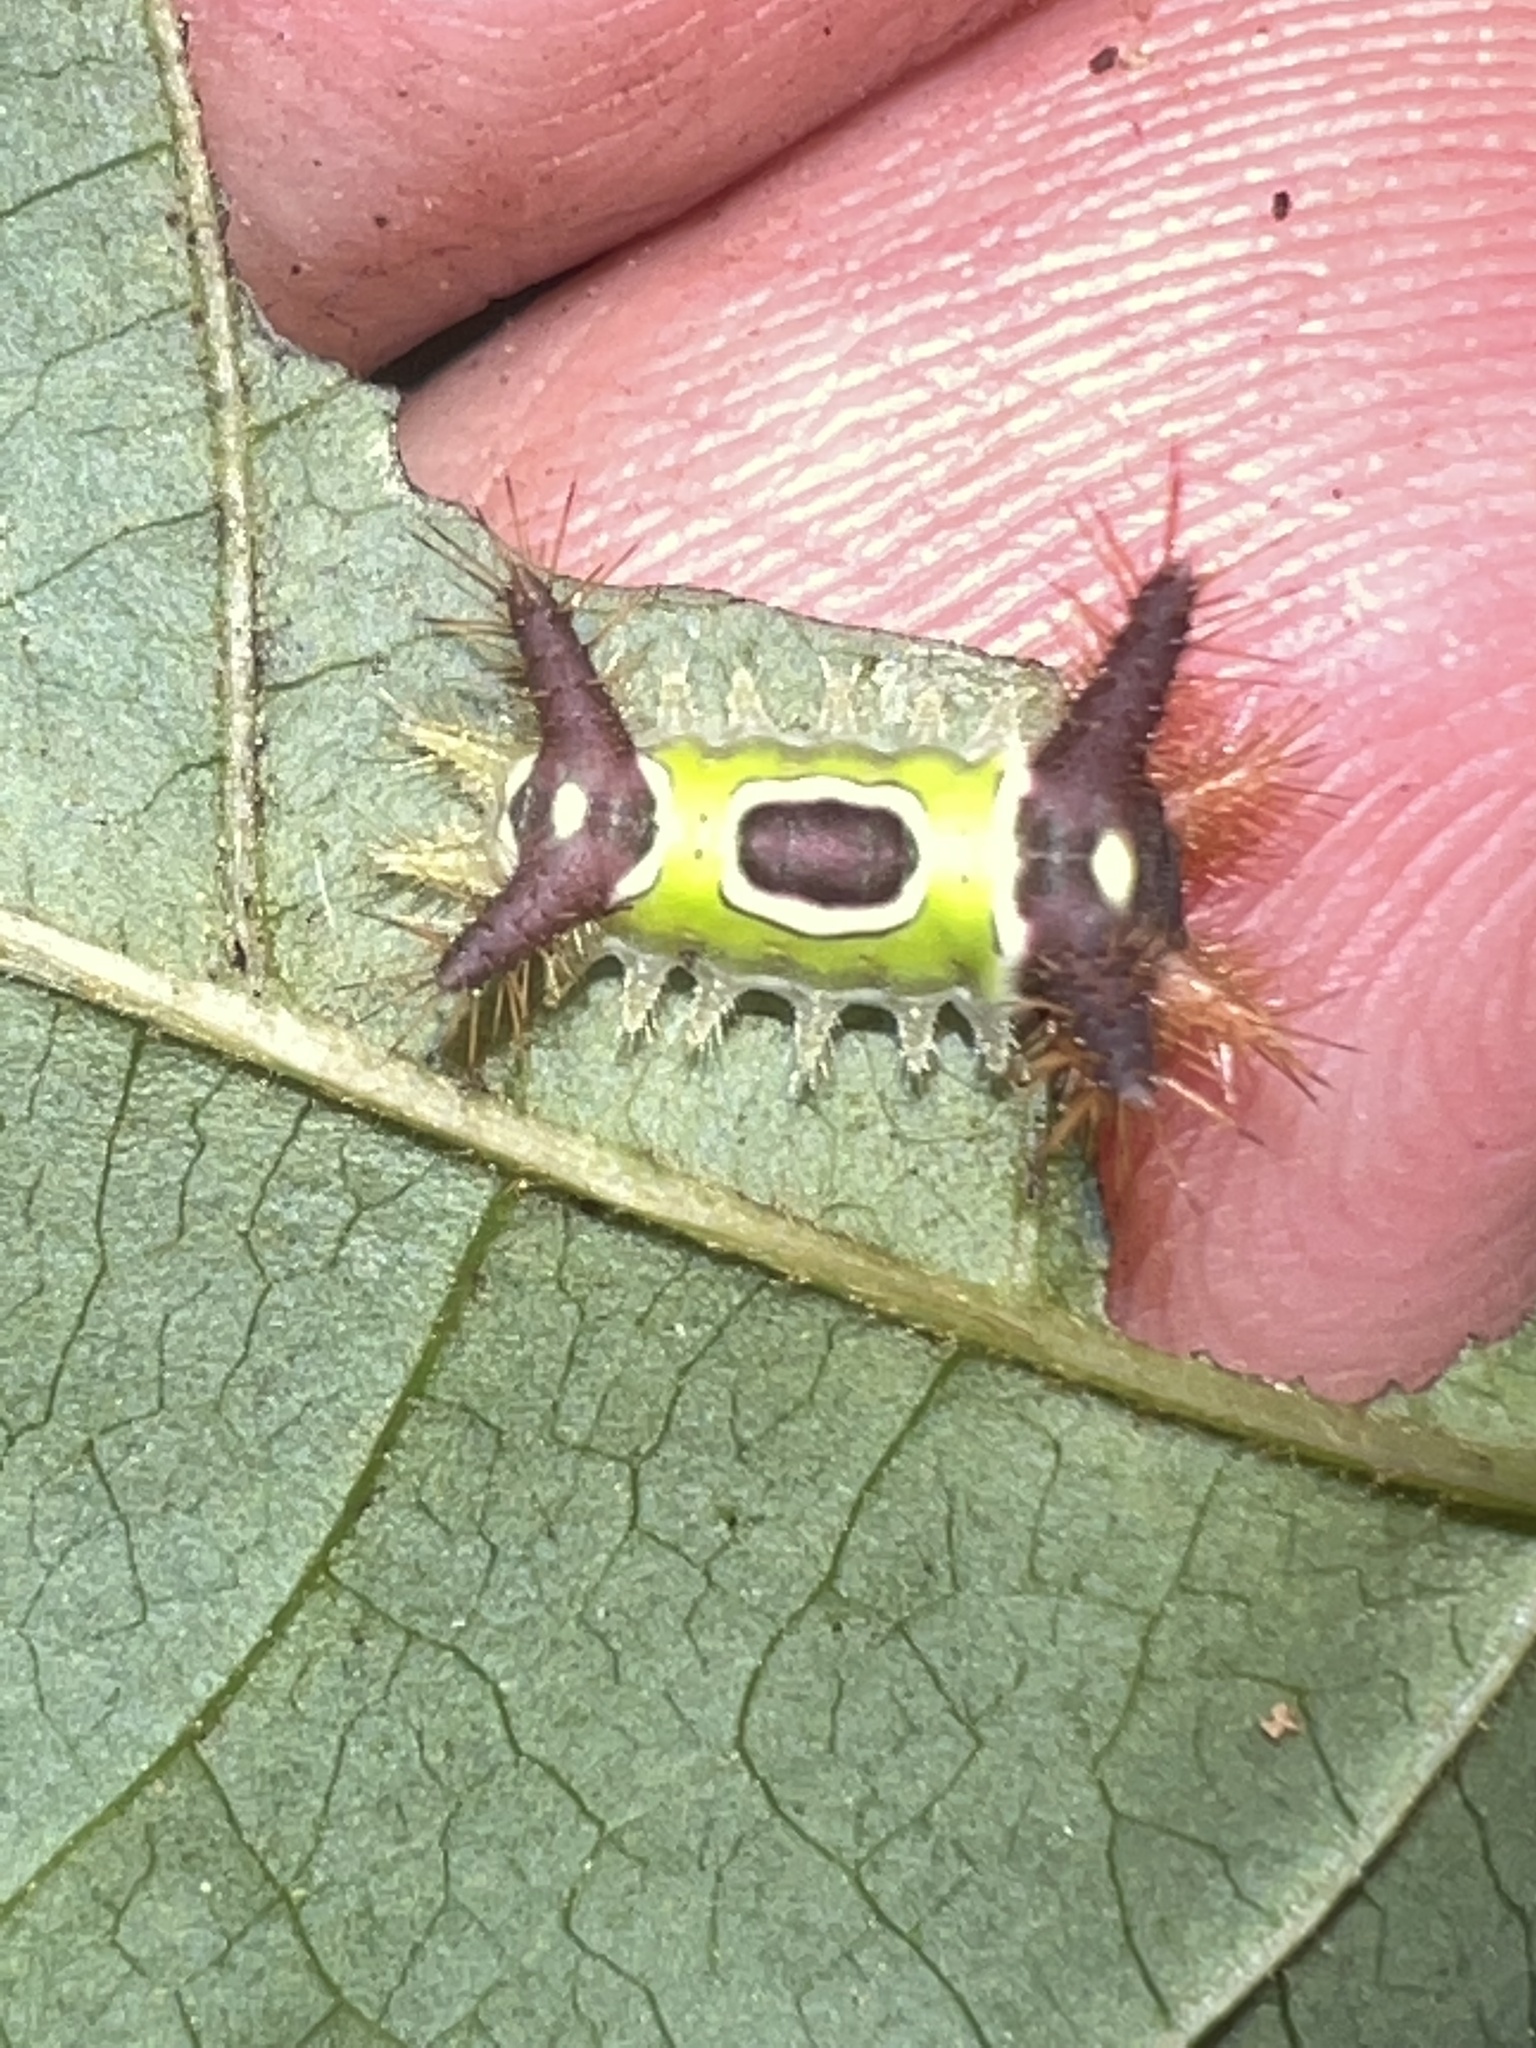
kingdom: Animalia
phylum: Arthropoda
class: Insecta
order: Lepidoptera
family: Limacodidae
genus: Acharia
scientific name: Acharia stimulea
